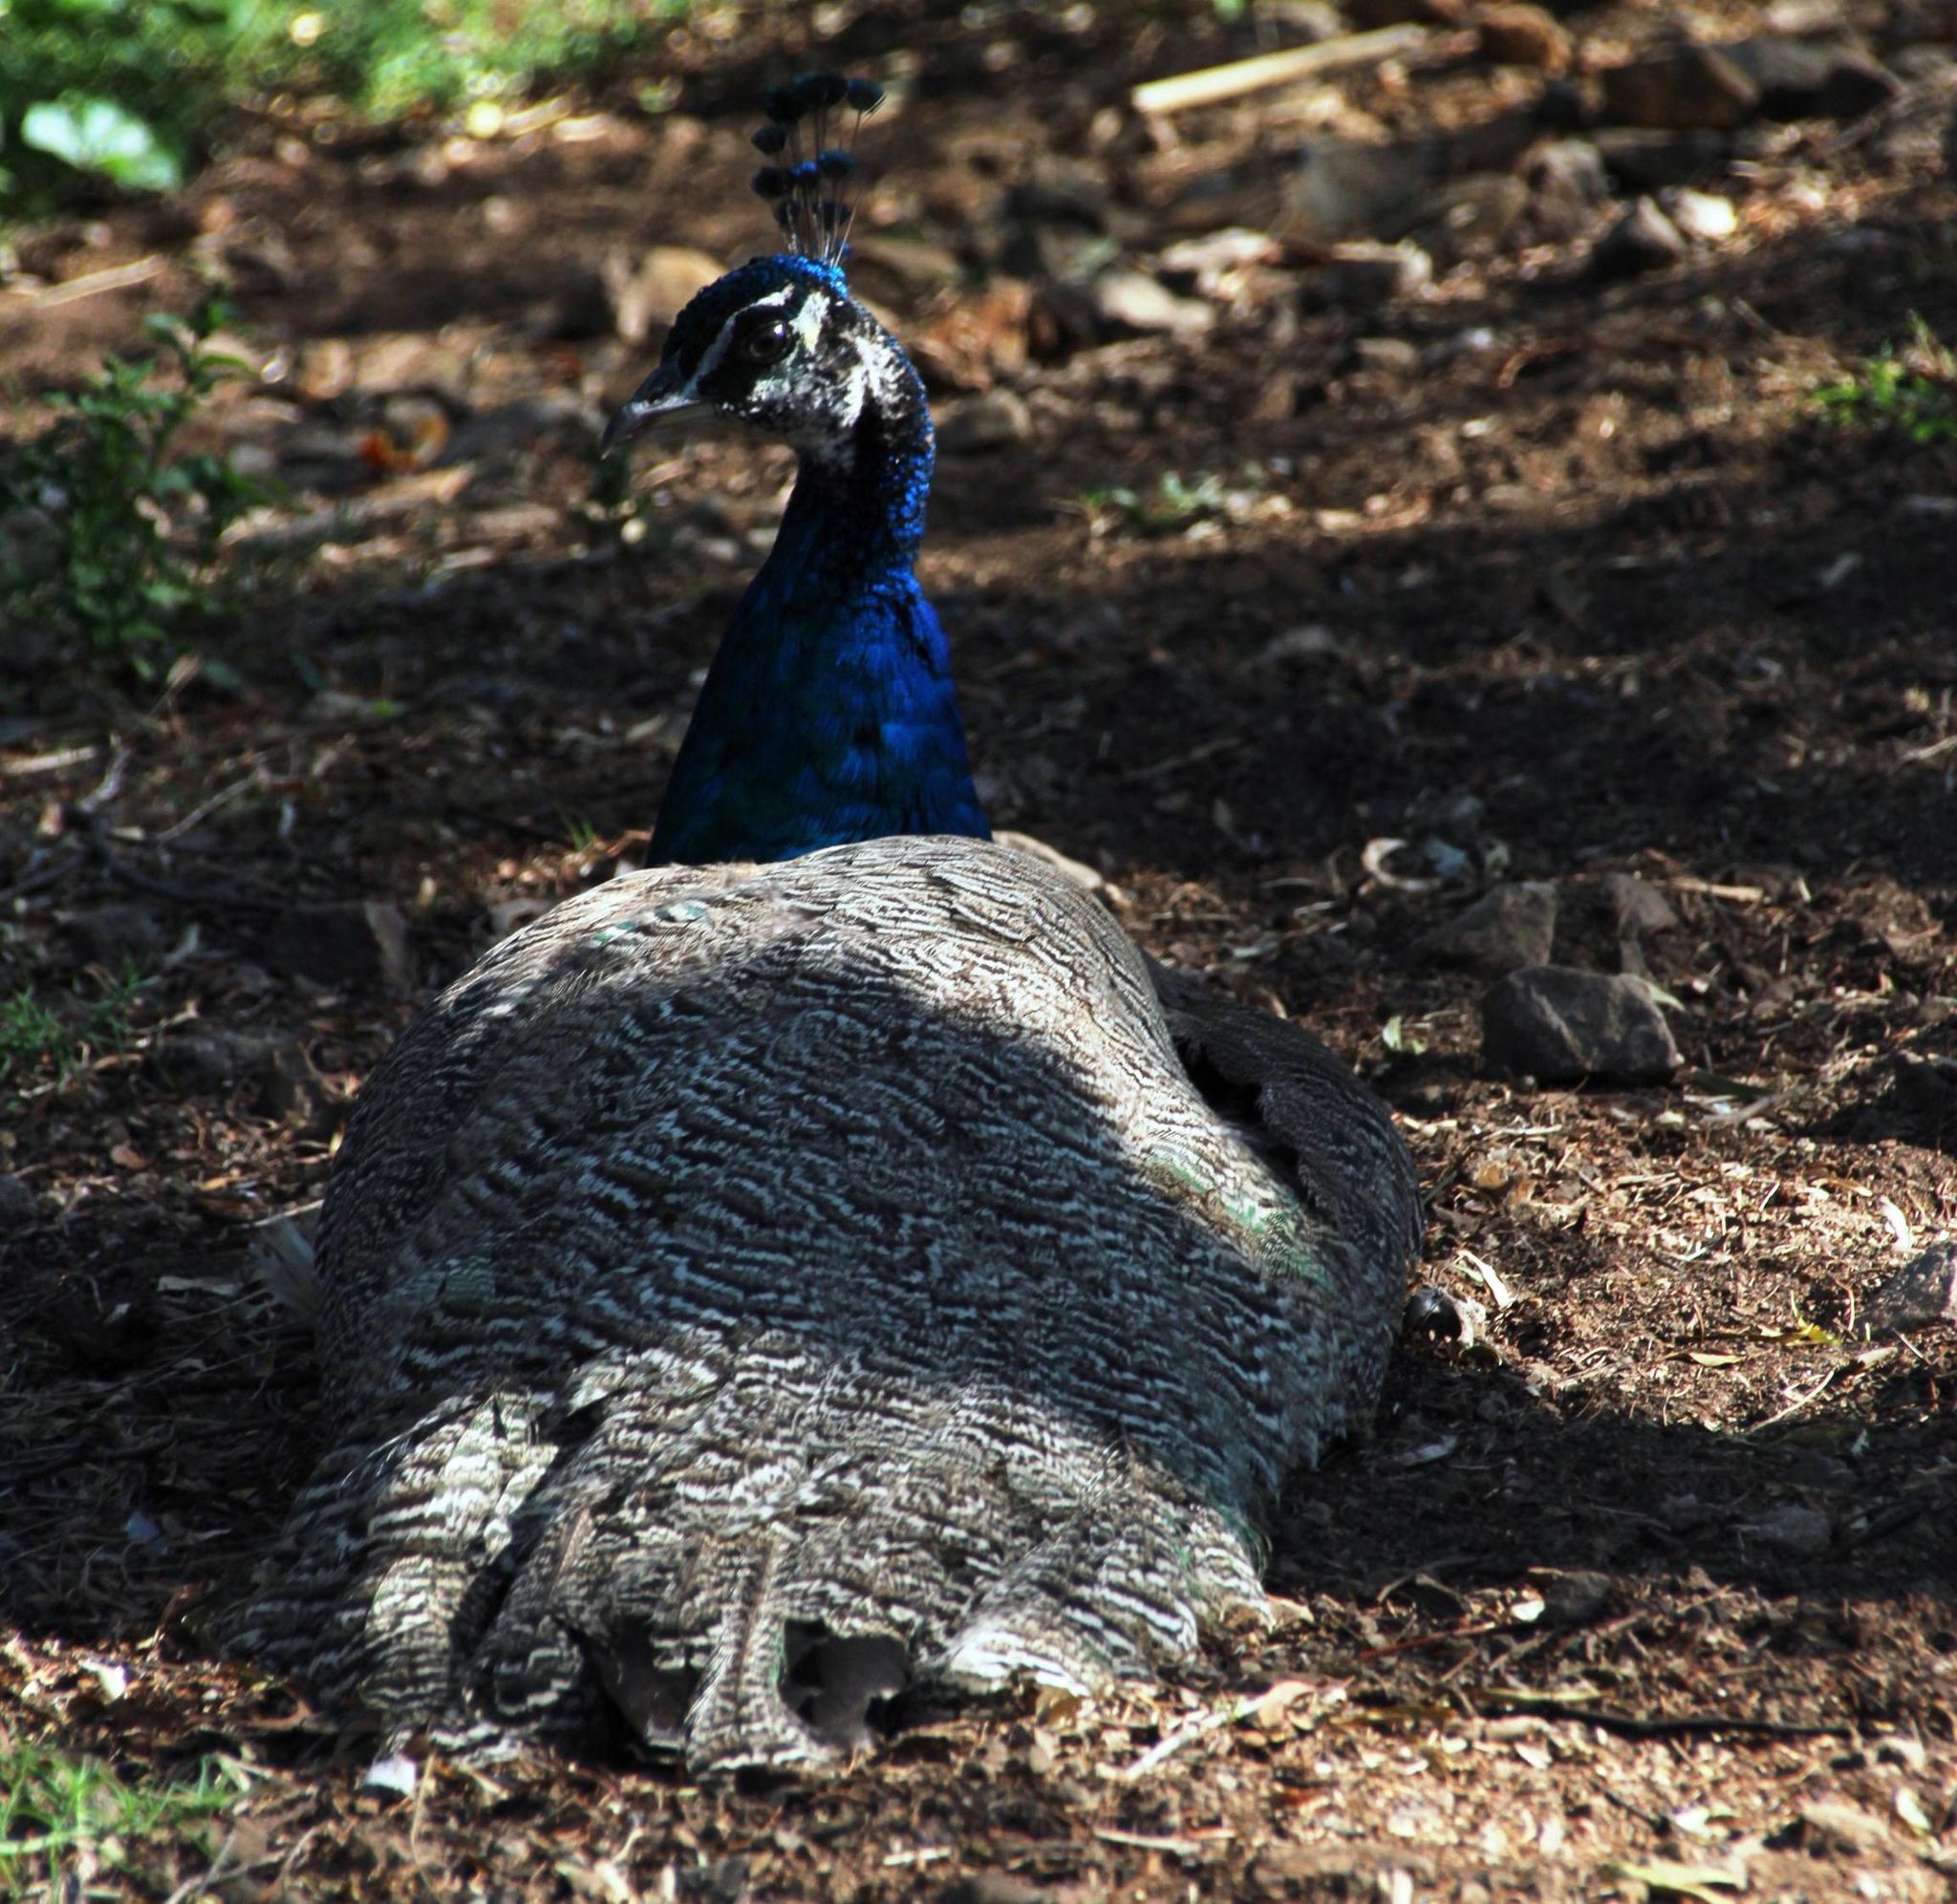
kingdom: Animalia
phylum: Chordata
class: Aves
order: Galliformes
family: Phasianidae
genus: Pavo
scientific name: Pavo cristatus
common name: Indian peafowl
